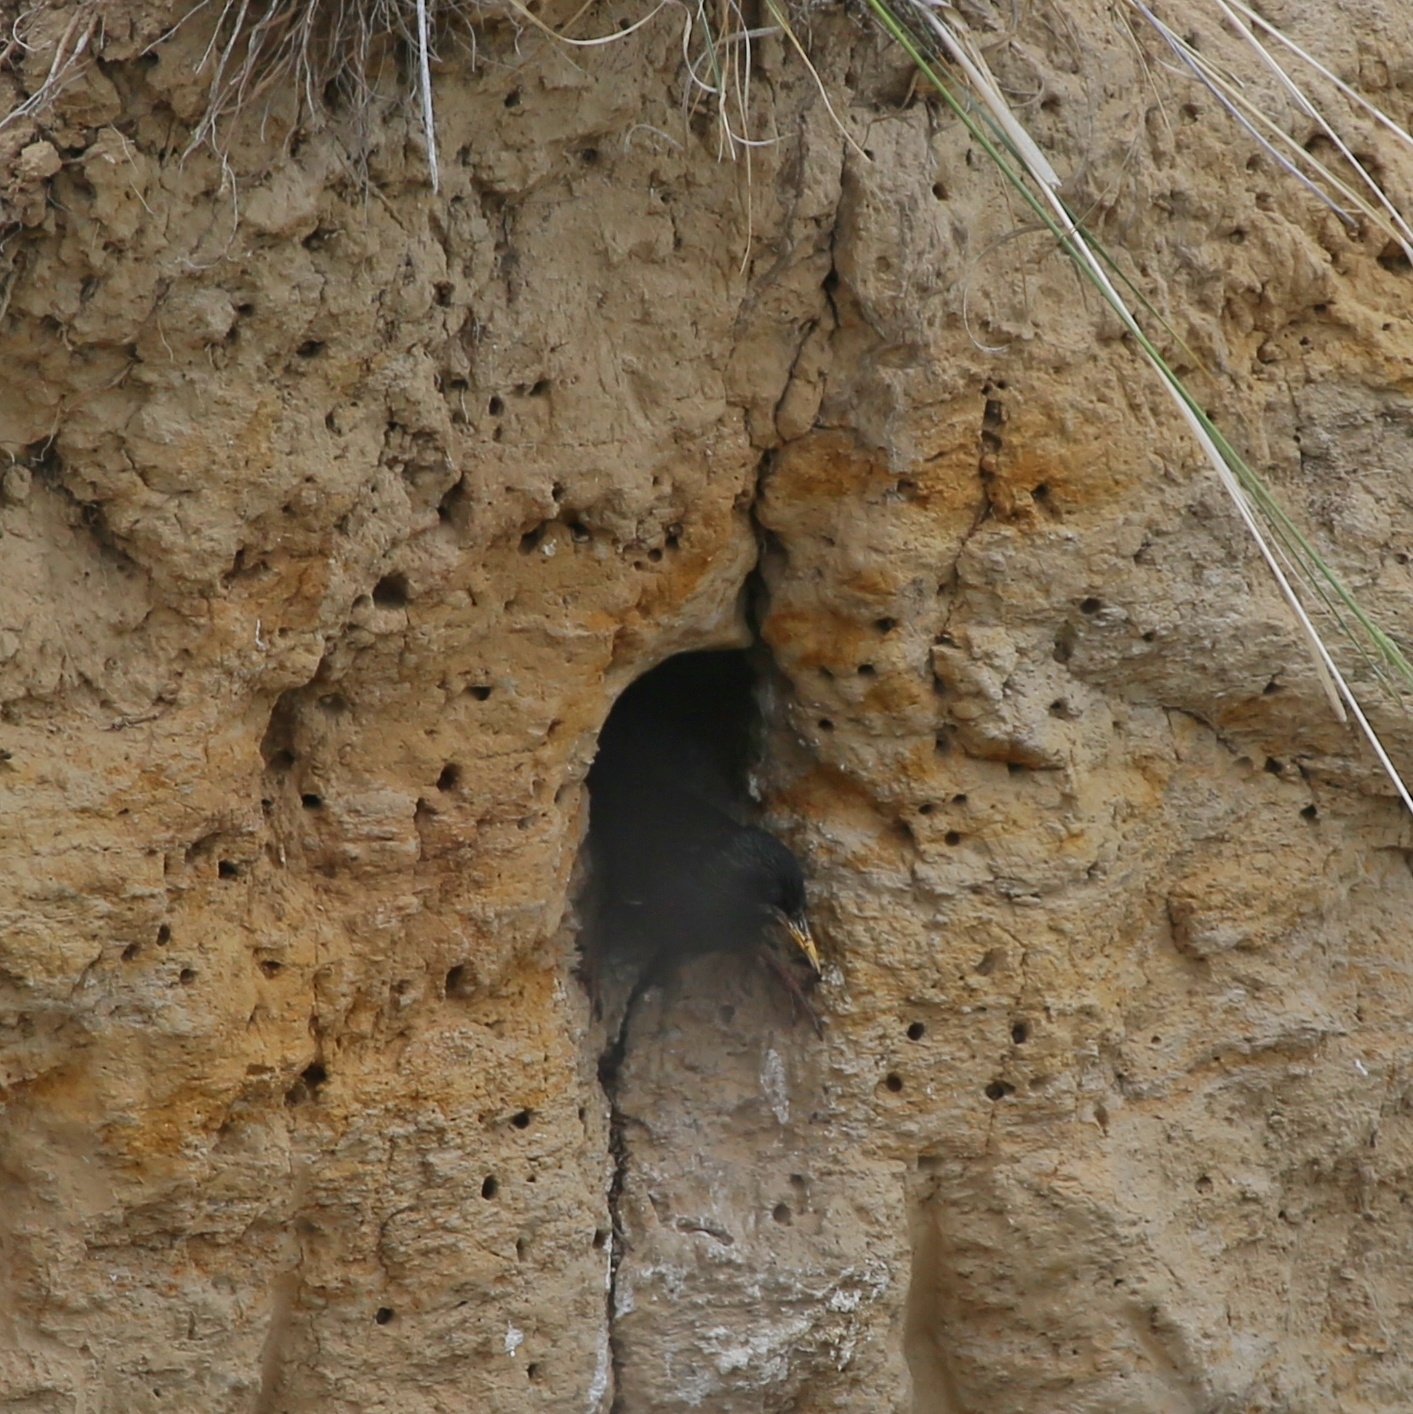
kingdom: Animalia
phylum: Chordata
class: Aves
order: Passeriformes
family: Sturnidae
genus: Sturnus
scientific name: Sturnus vulgaris
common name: Common starling
